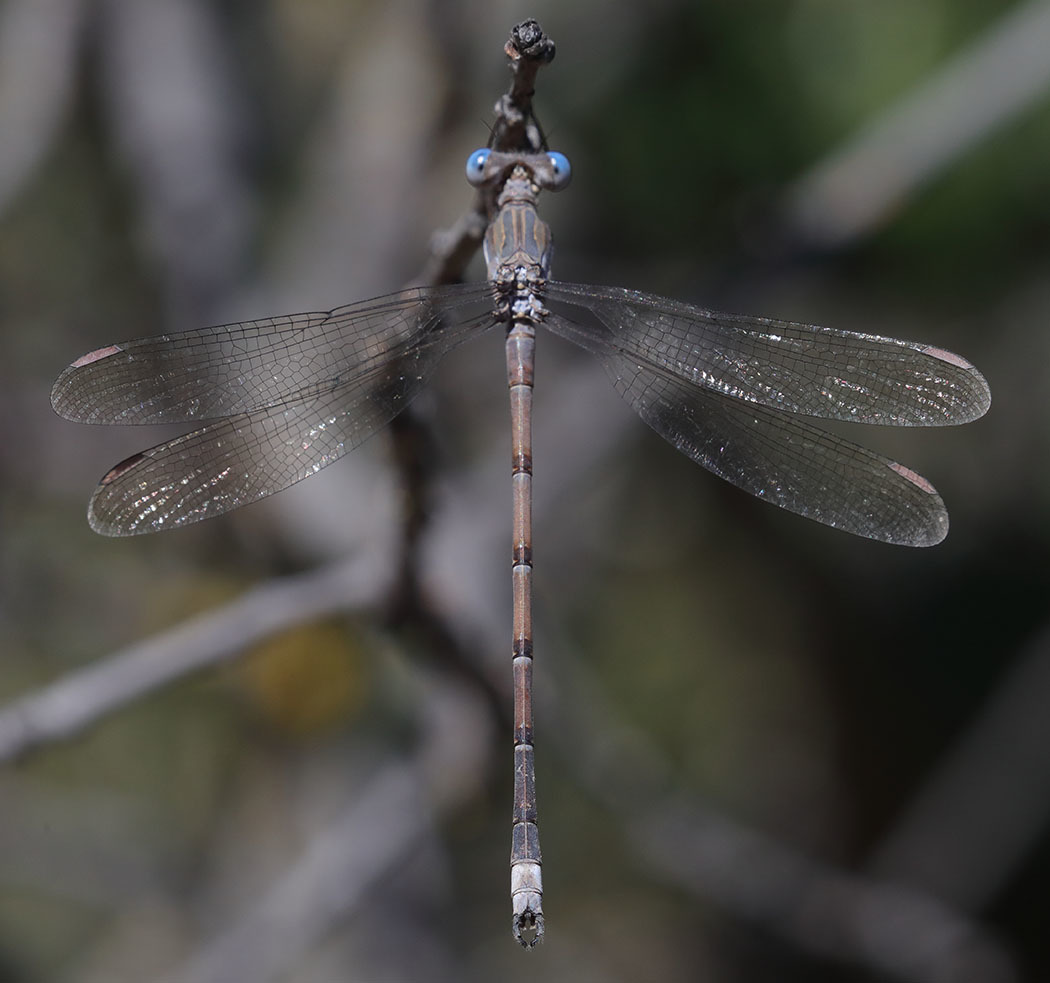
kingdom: Animalia
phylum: Arthropoda
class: Insecta
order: Odonata
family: Lestidae
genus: Archilestes
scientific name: Archilestes californicus
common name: California spreadwing
